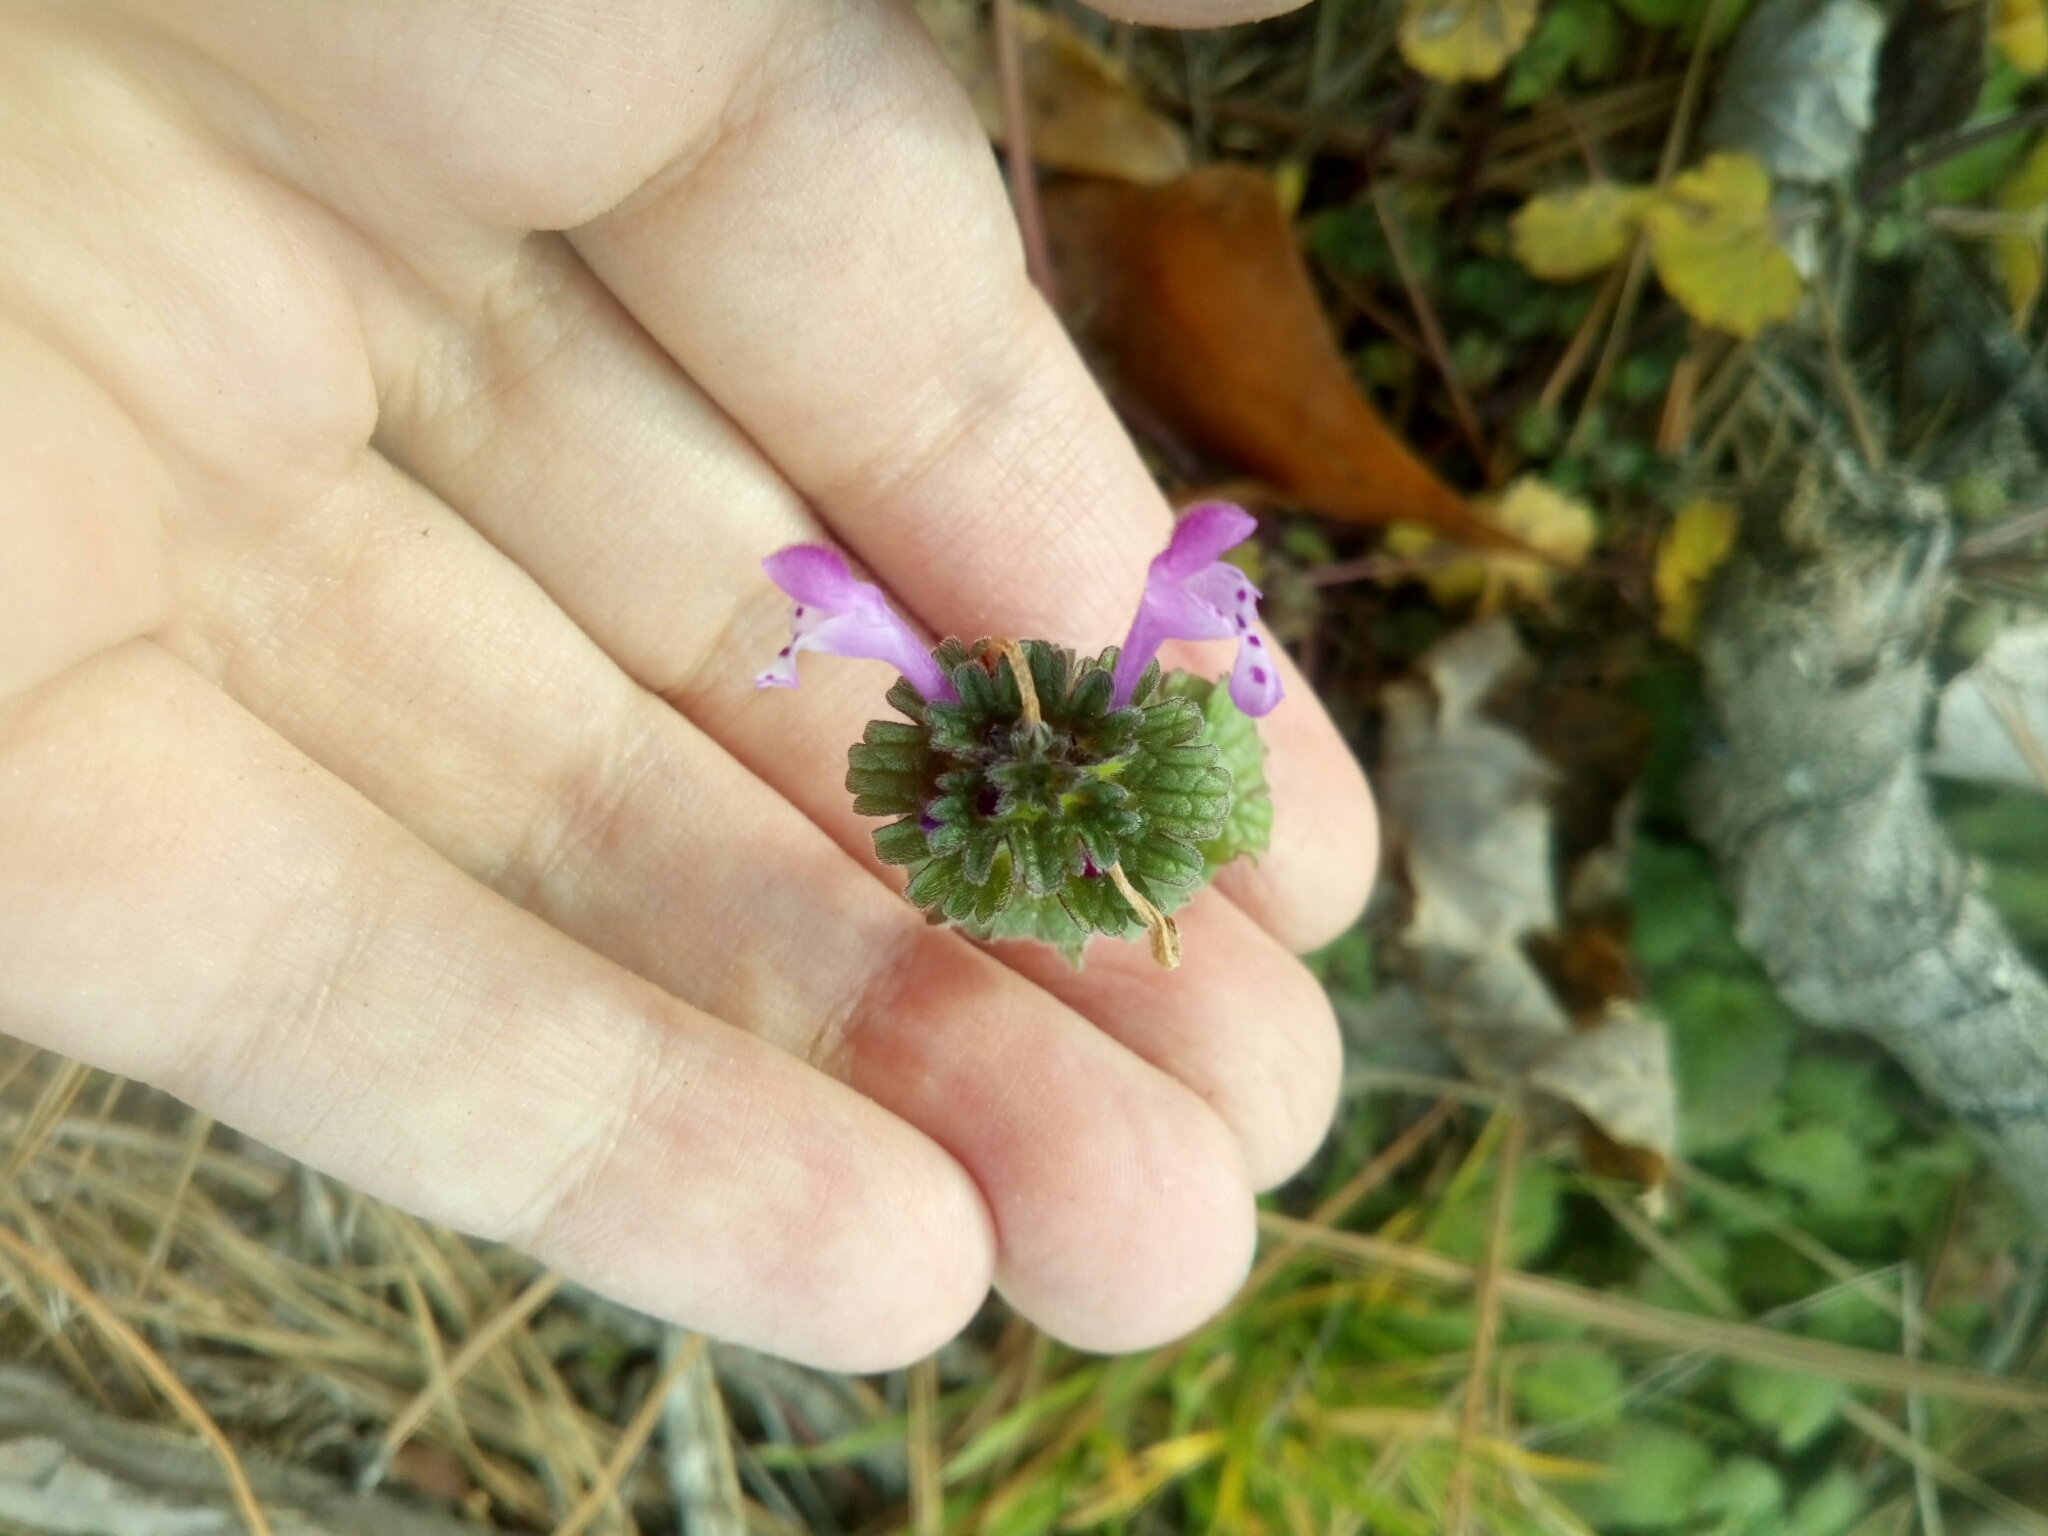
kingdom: Plantae
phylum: Tracheophyta
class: Magnoliopsida
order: Lamiales
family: Lamiaceae
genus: Lamium
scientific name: Lamium amplexicaule
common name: Henbit dead-nettle
